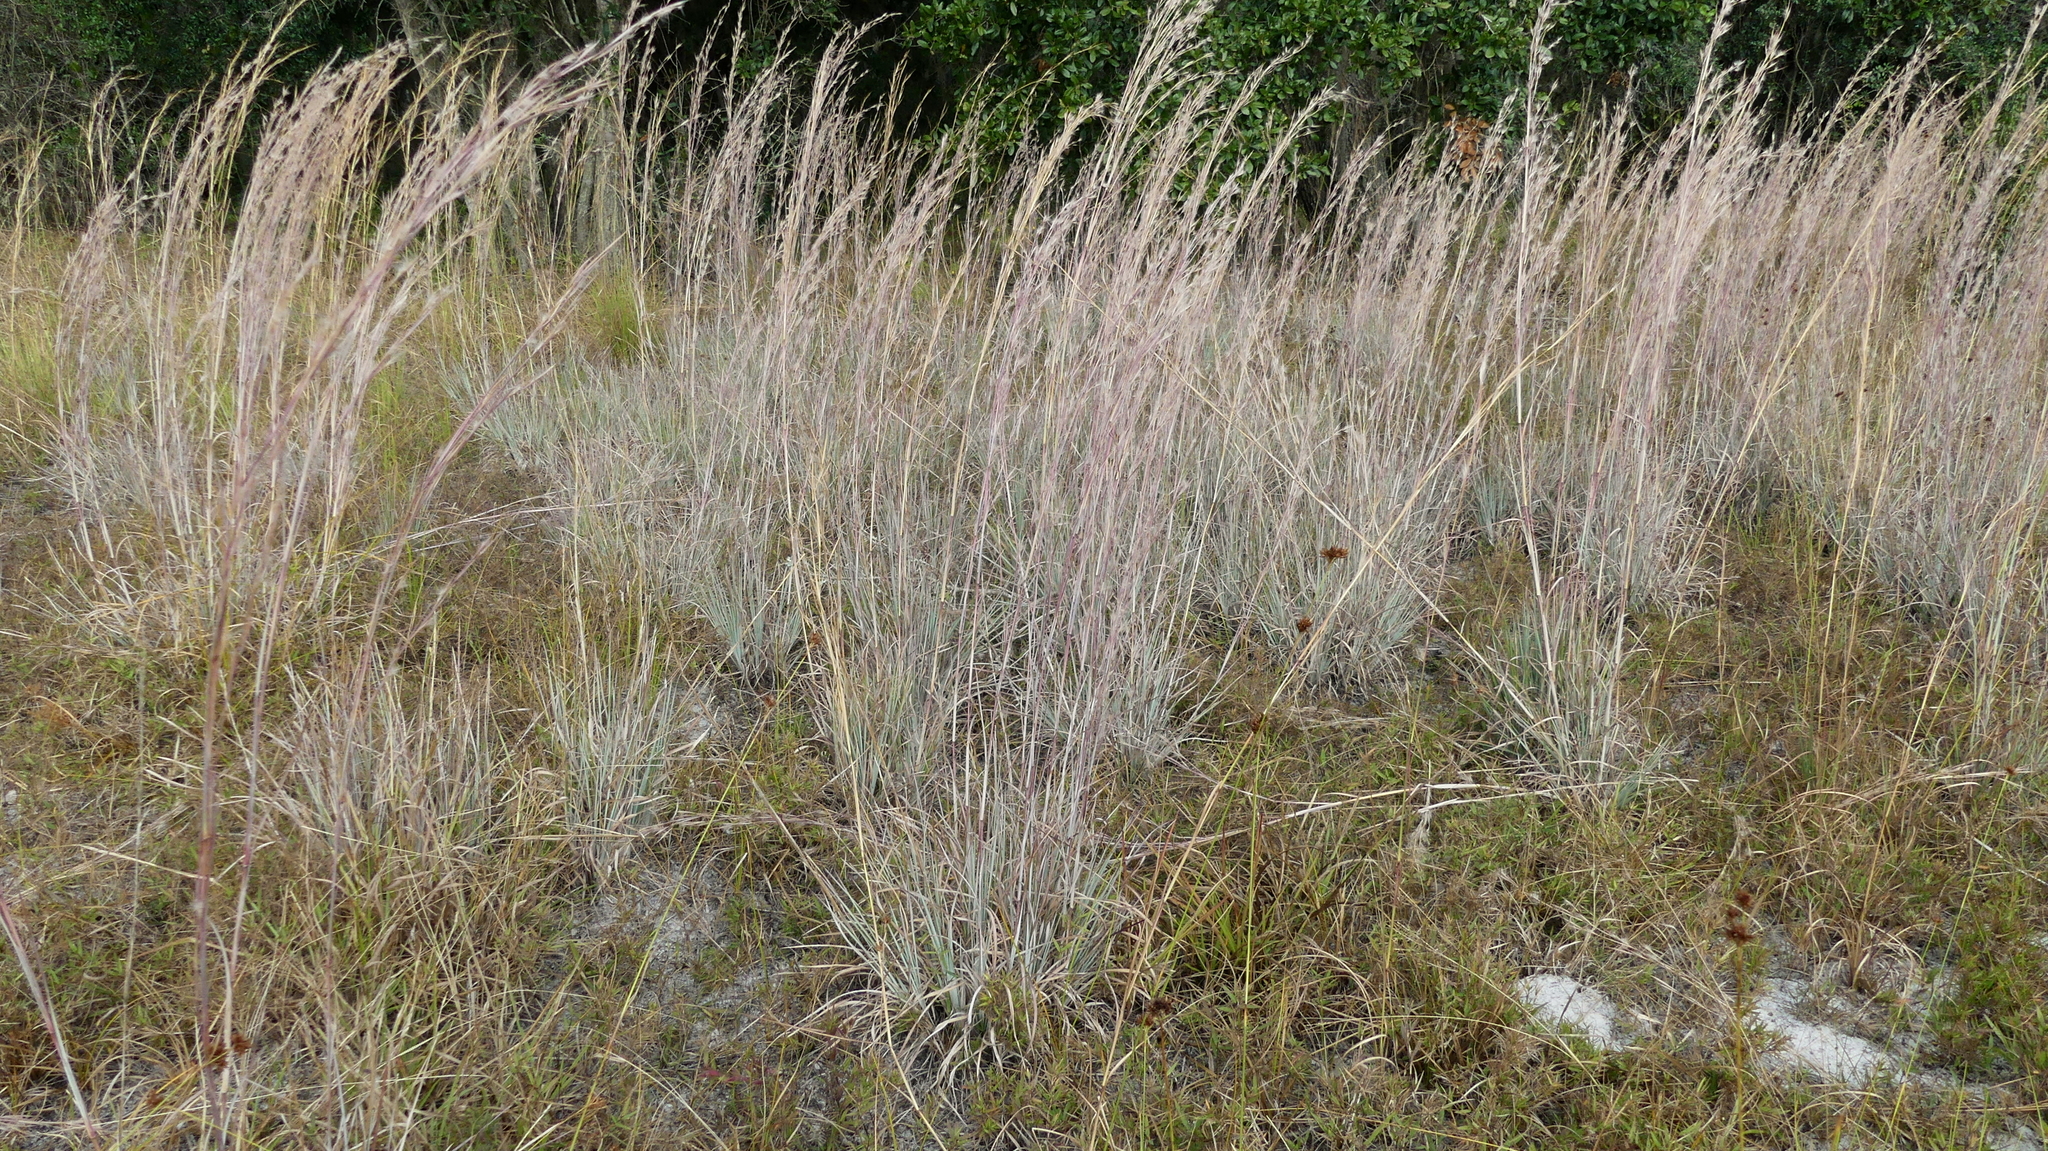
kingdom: Plantae
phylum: Tracheophyta
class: Liliopsida
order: Poales
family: Poaceae
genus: Andropogon
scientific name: Andropogon capillipes
